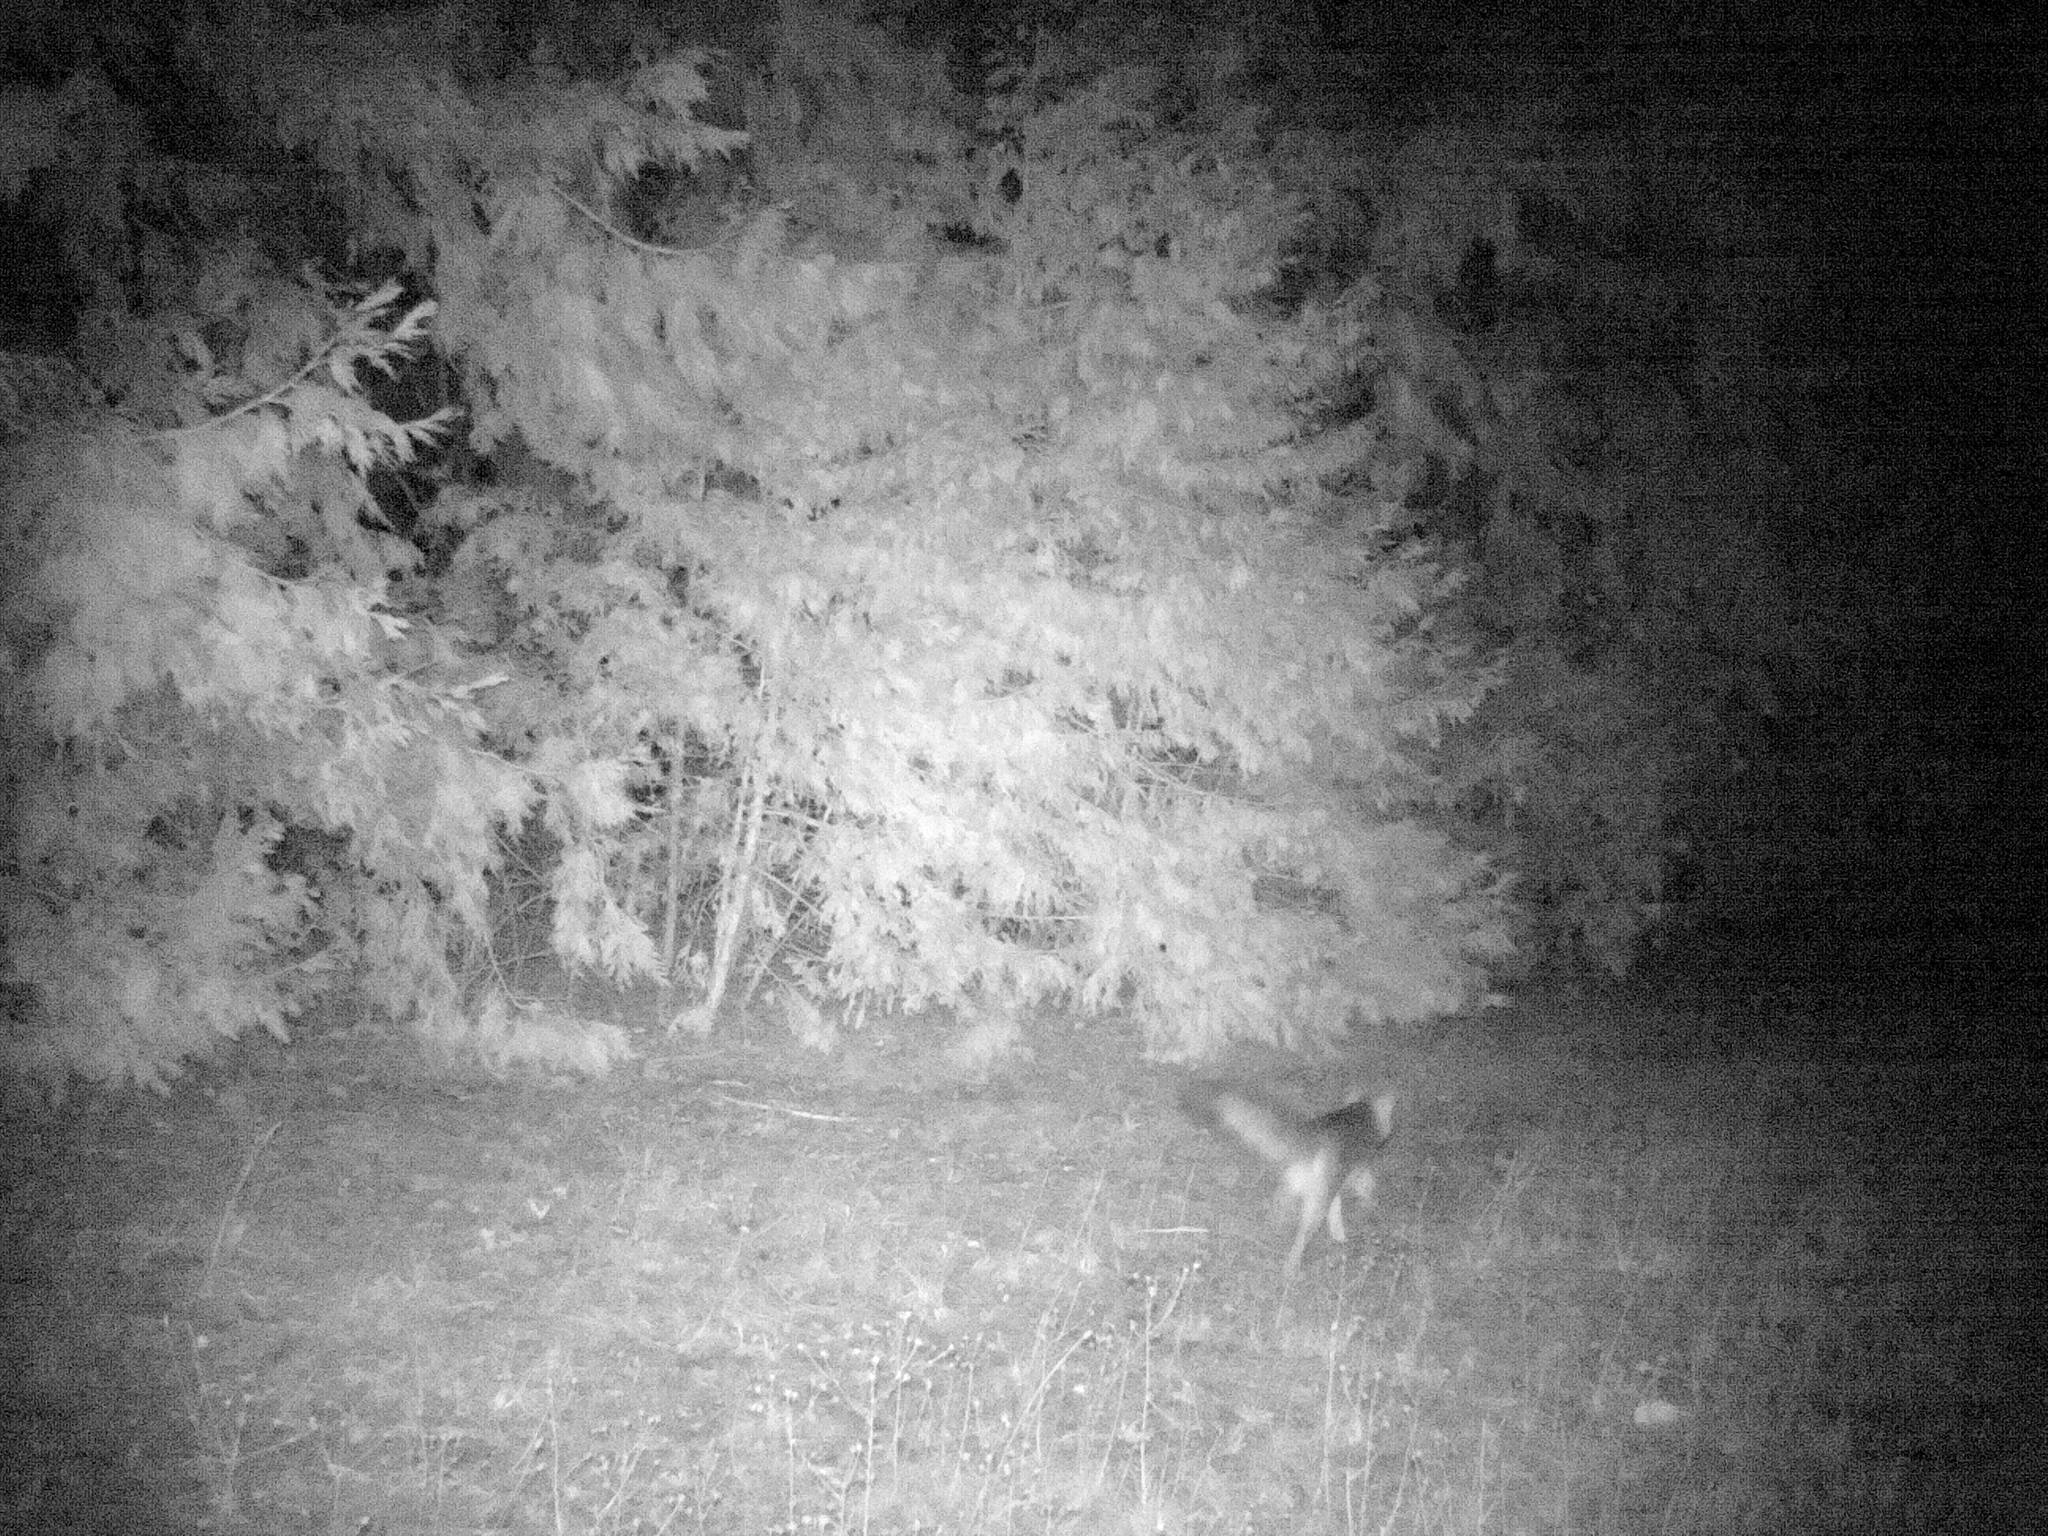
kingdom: Animalia
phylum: Chordata
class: Mammalia
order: Carnivora
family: Canidae
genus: Urocyon
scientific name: Urocyon cinereoargenteus
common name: Gray fox
